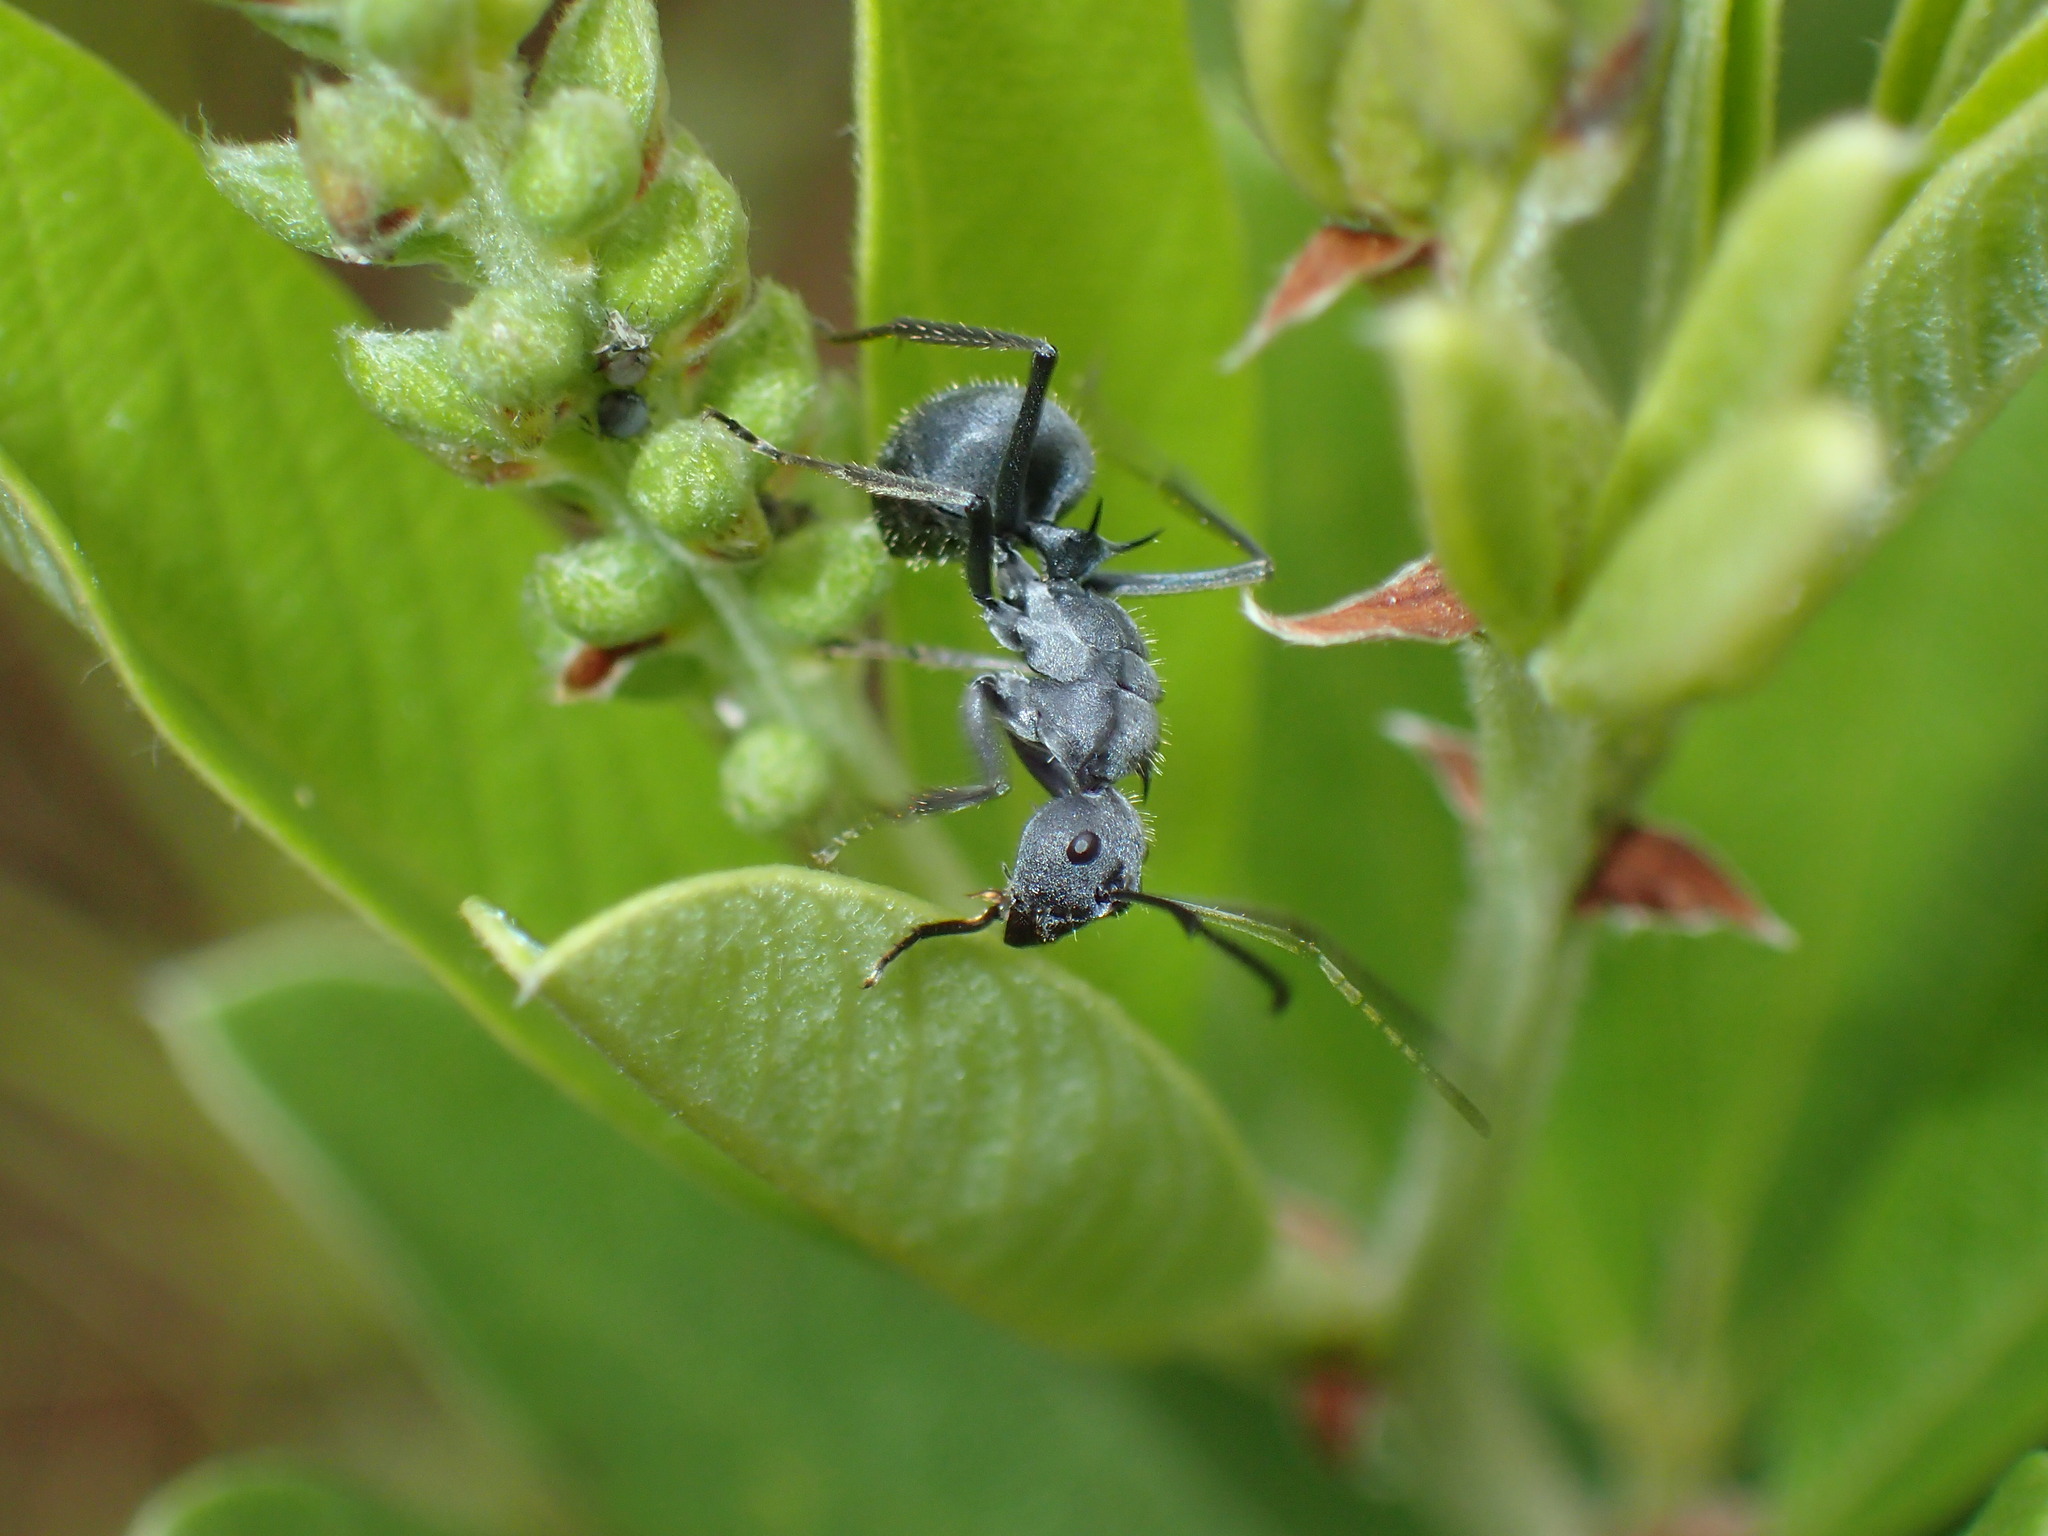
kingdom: Animalia
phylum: Arthropoda
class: Insecta
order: Hymenoptera
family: Formicidae
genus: Polyrhachis
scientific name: Polyrhachis schistacea
